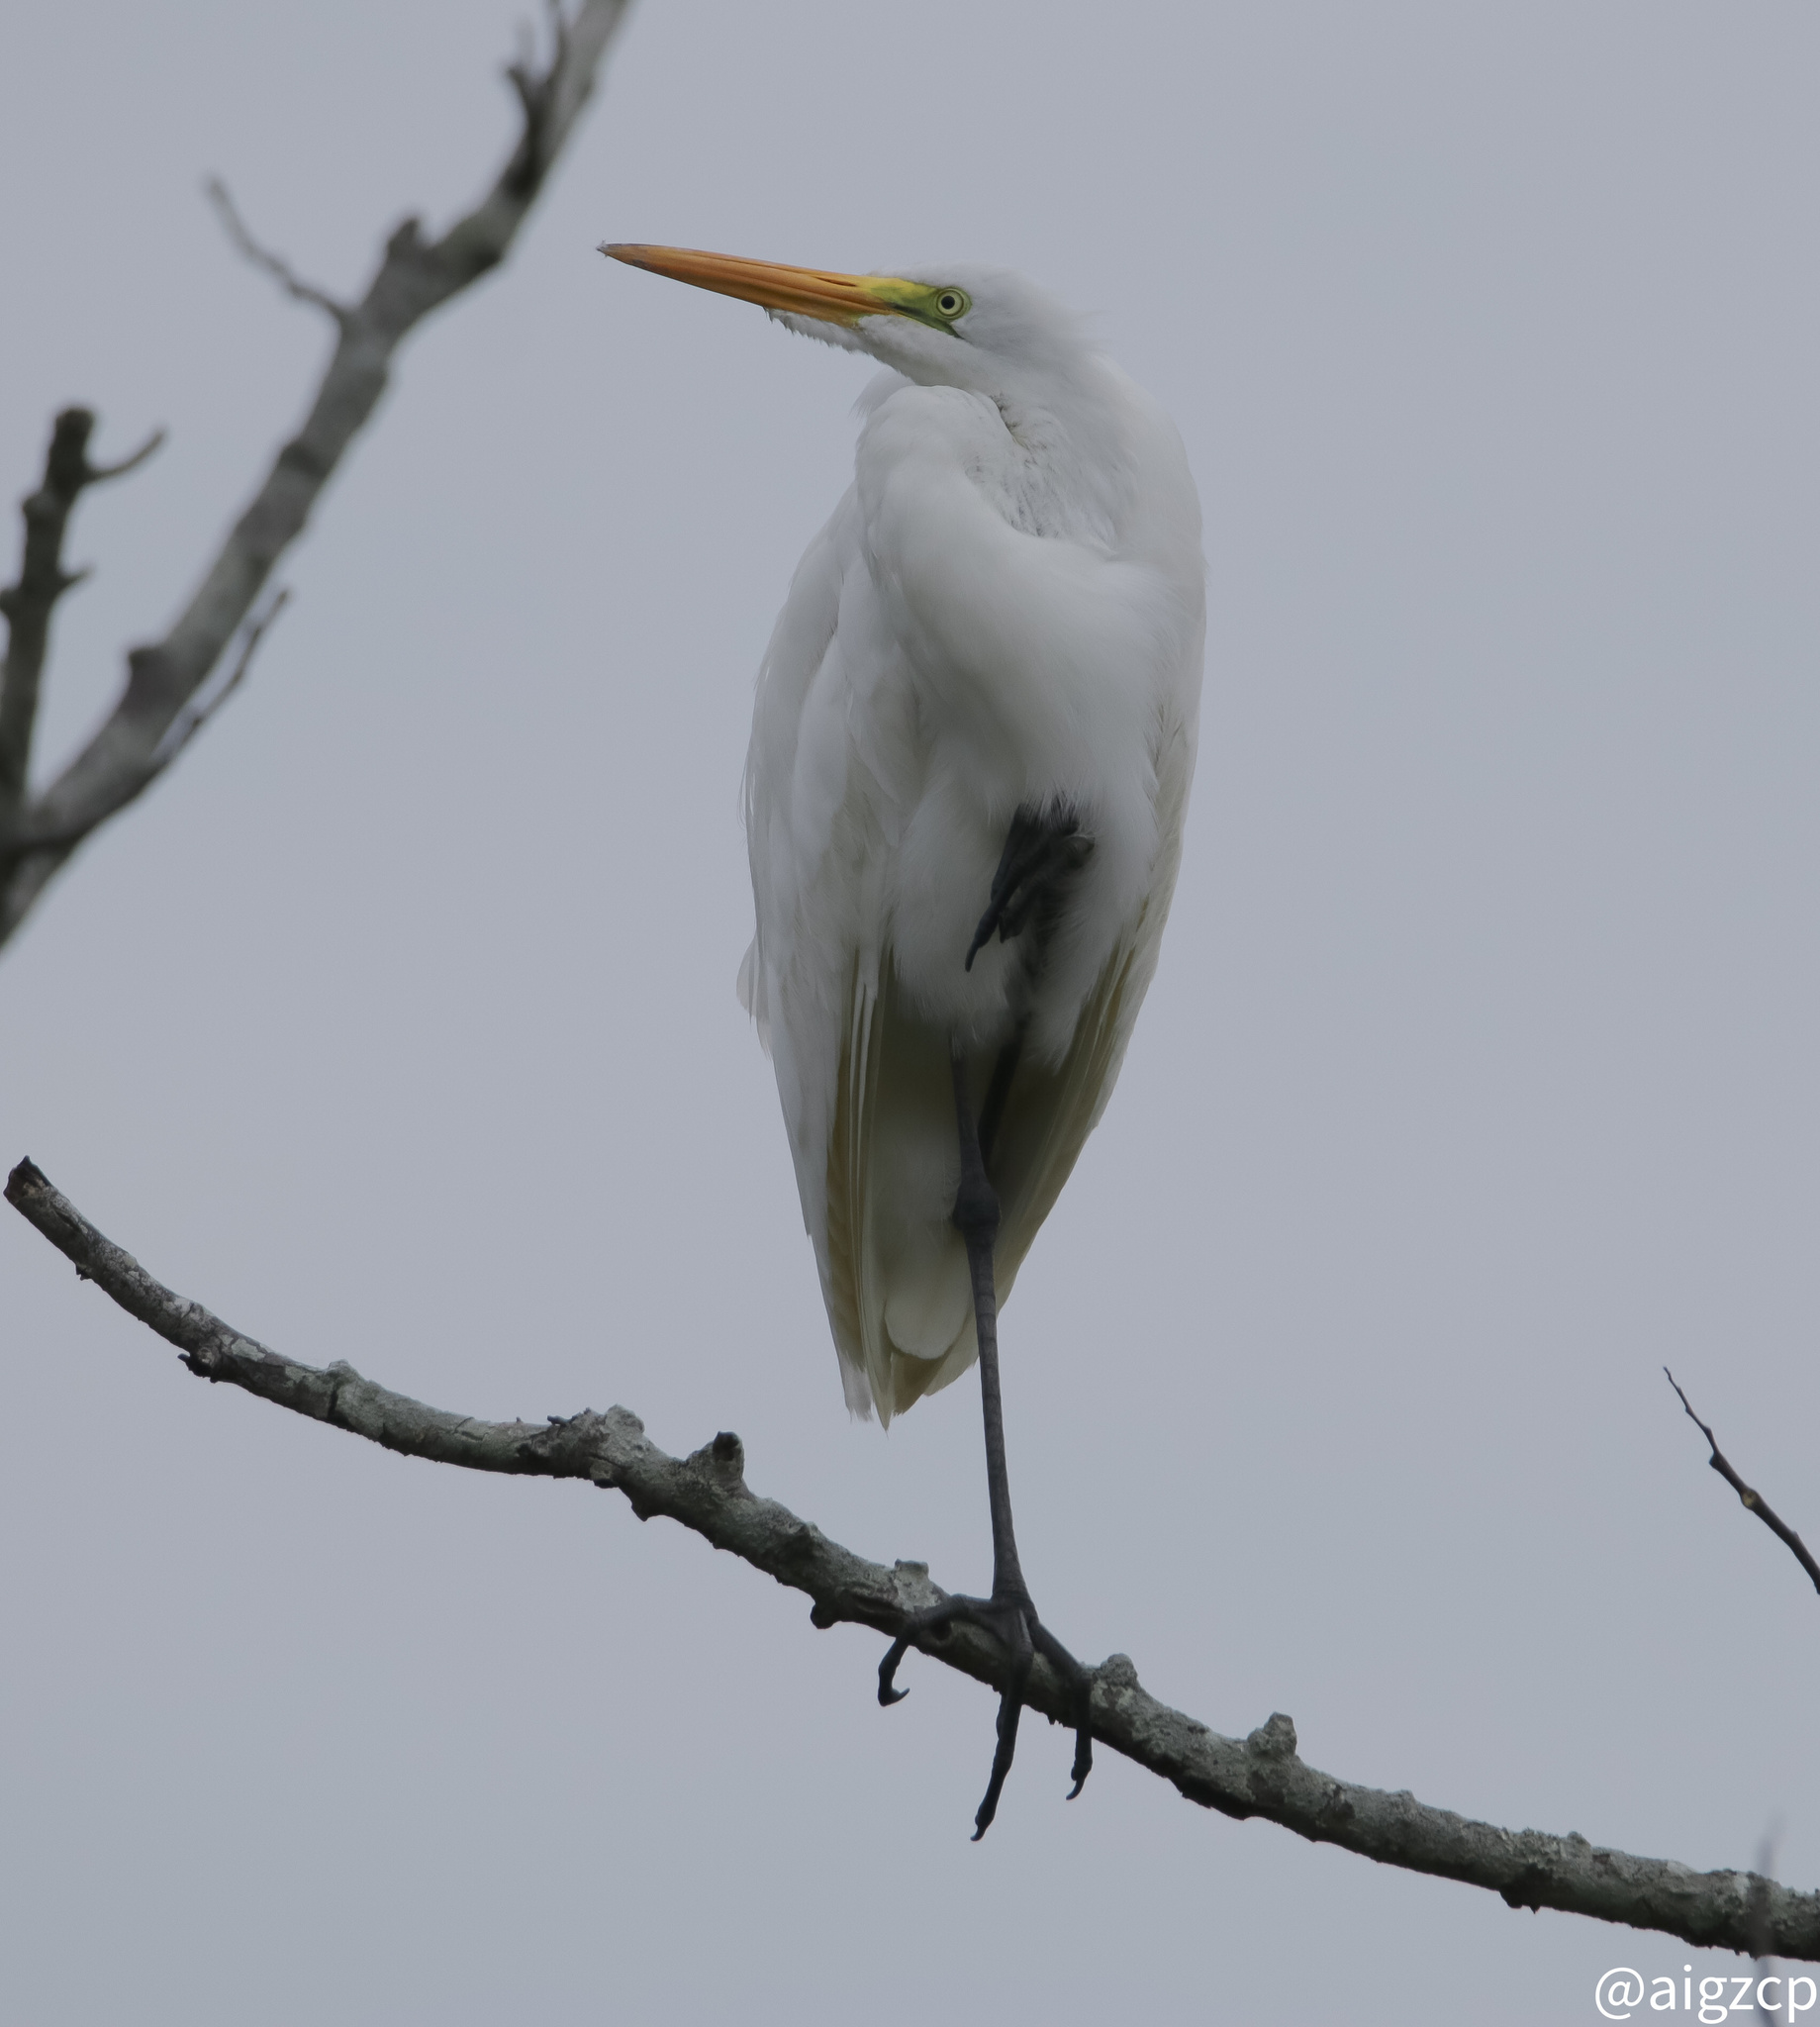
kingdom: Animalia
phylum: Chordata
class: Aves
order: Pelecaniformes
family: Ardeidae
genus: Ardea
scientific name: Ardea alba
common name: Great egret
